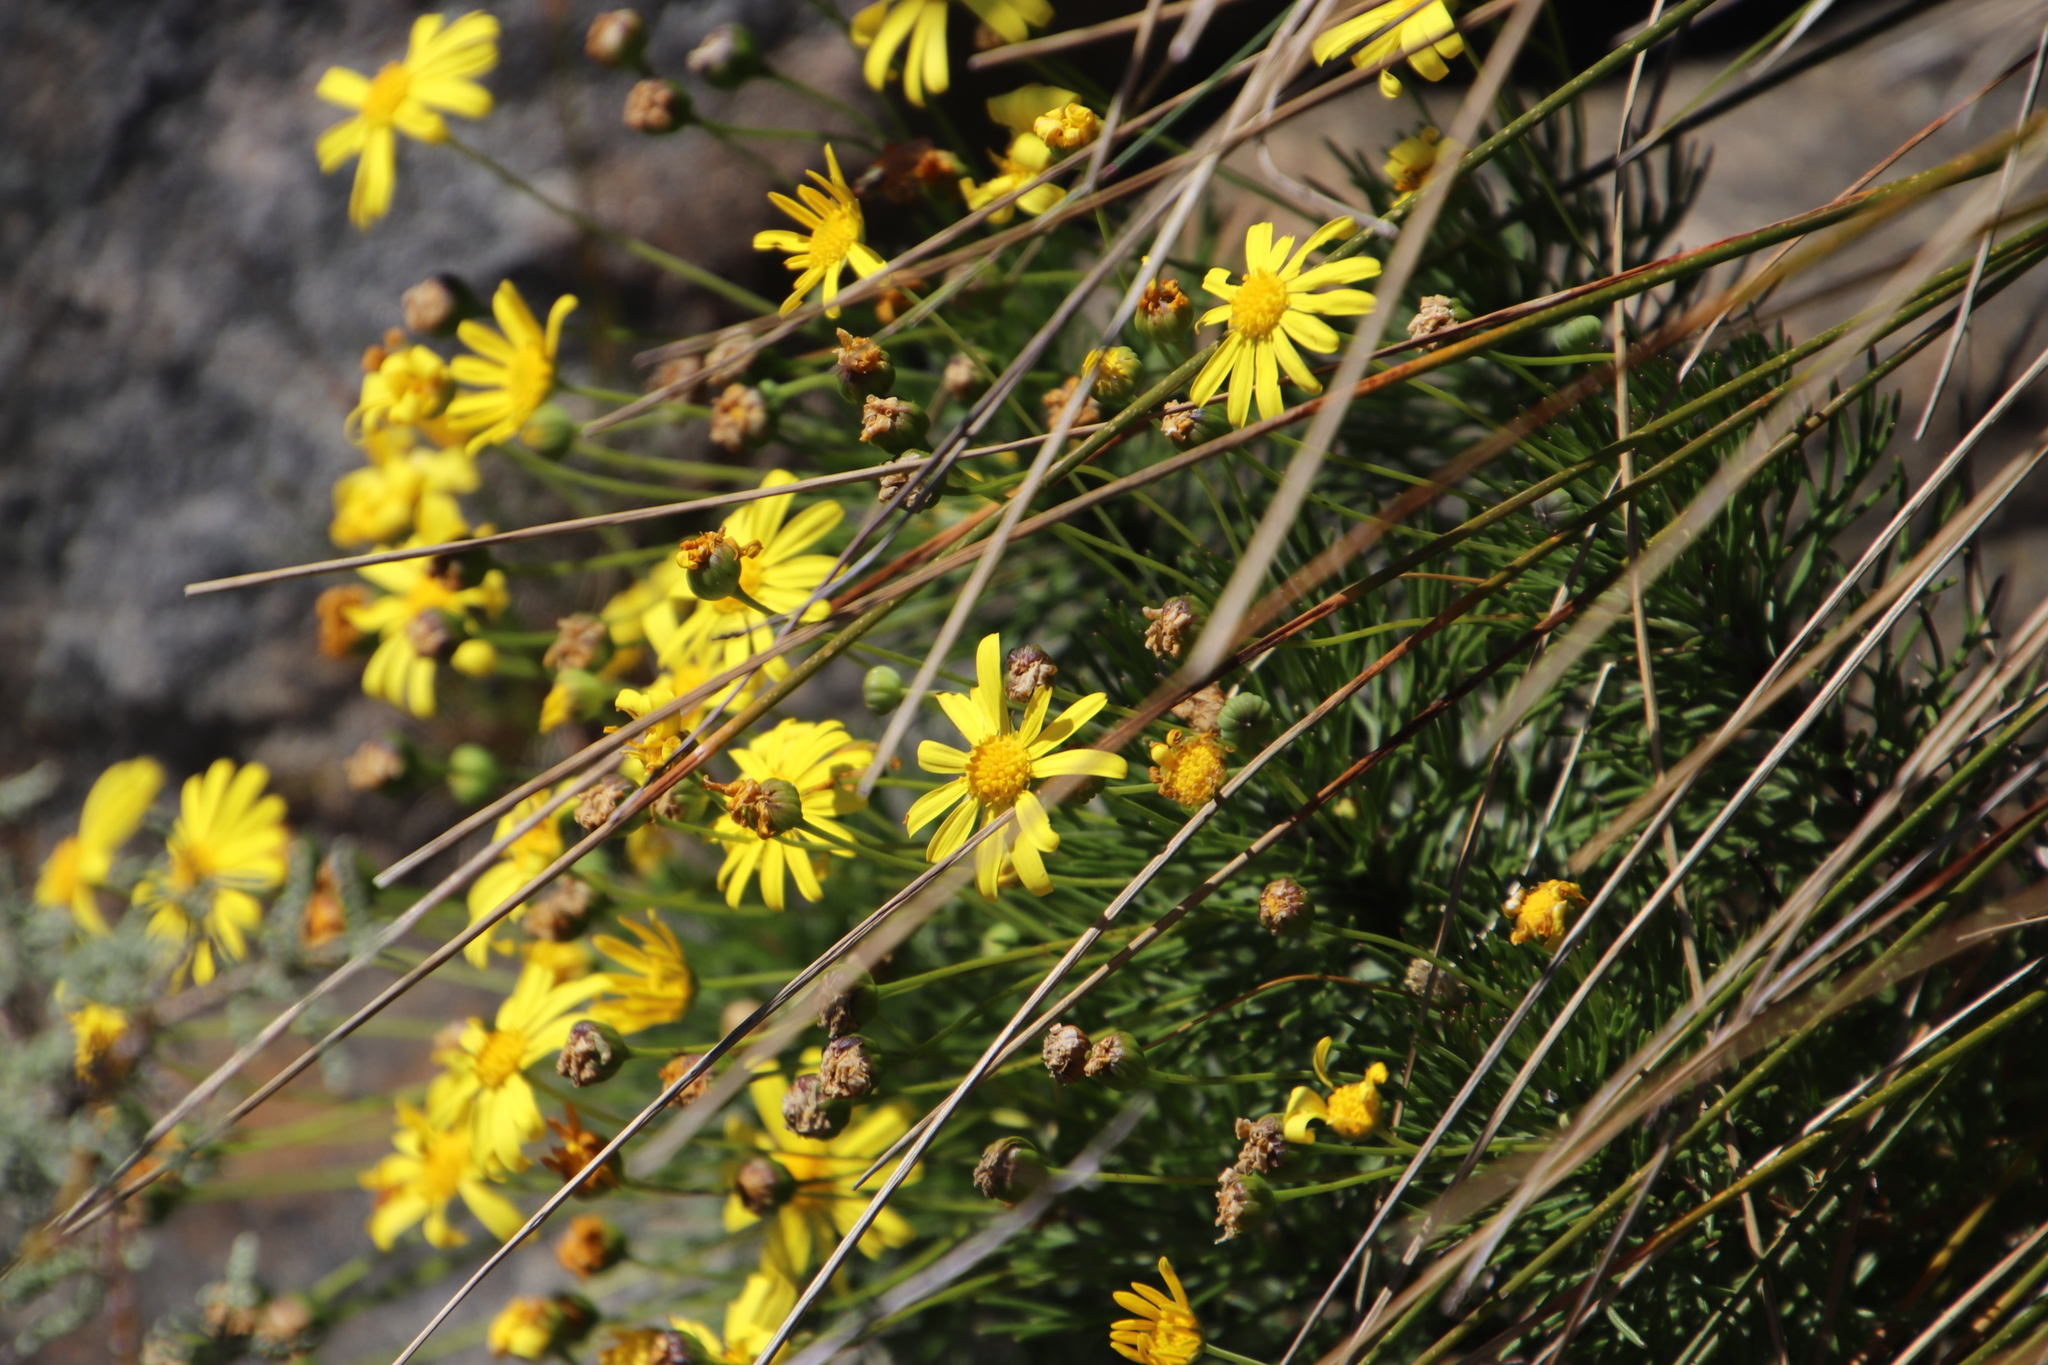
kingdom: Plantae
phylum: Tracheophyta
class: Magnoliopsida
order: Asterales
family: Asteraceae
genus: Euryops
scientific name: Euryops abrotanifolius
